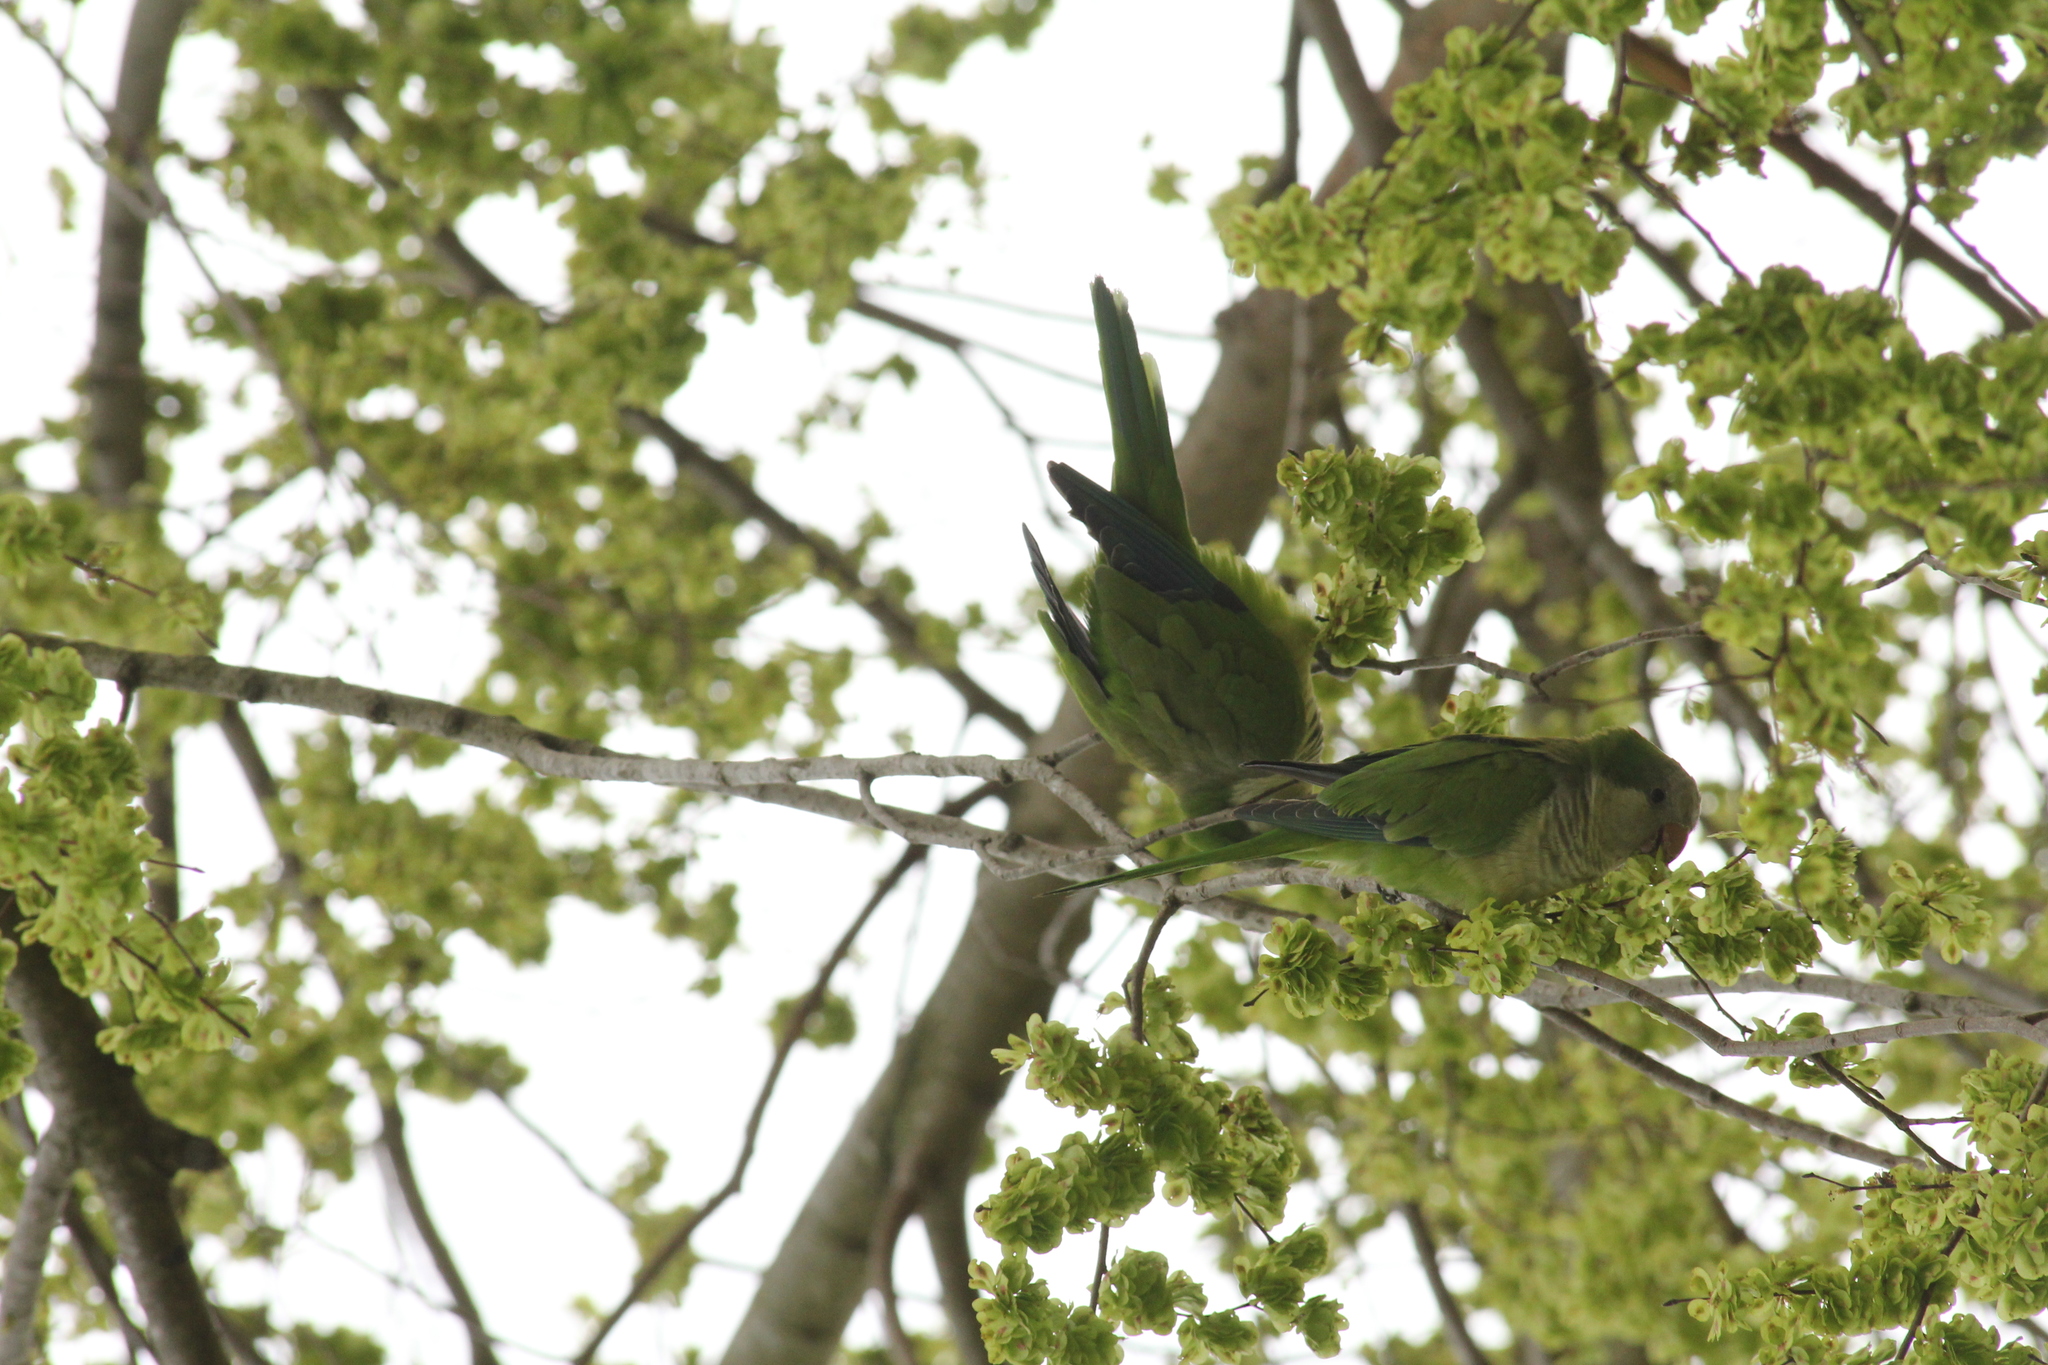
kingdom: Animalia
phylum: Chordata
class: Aves
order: Psittaciformes
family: Psittacidae
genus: Myiopsitta
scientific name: Myiopsitta monachus
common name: Monk parakeet
